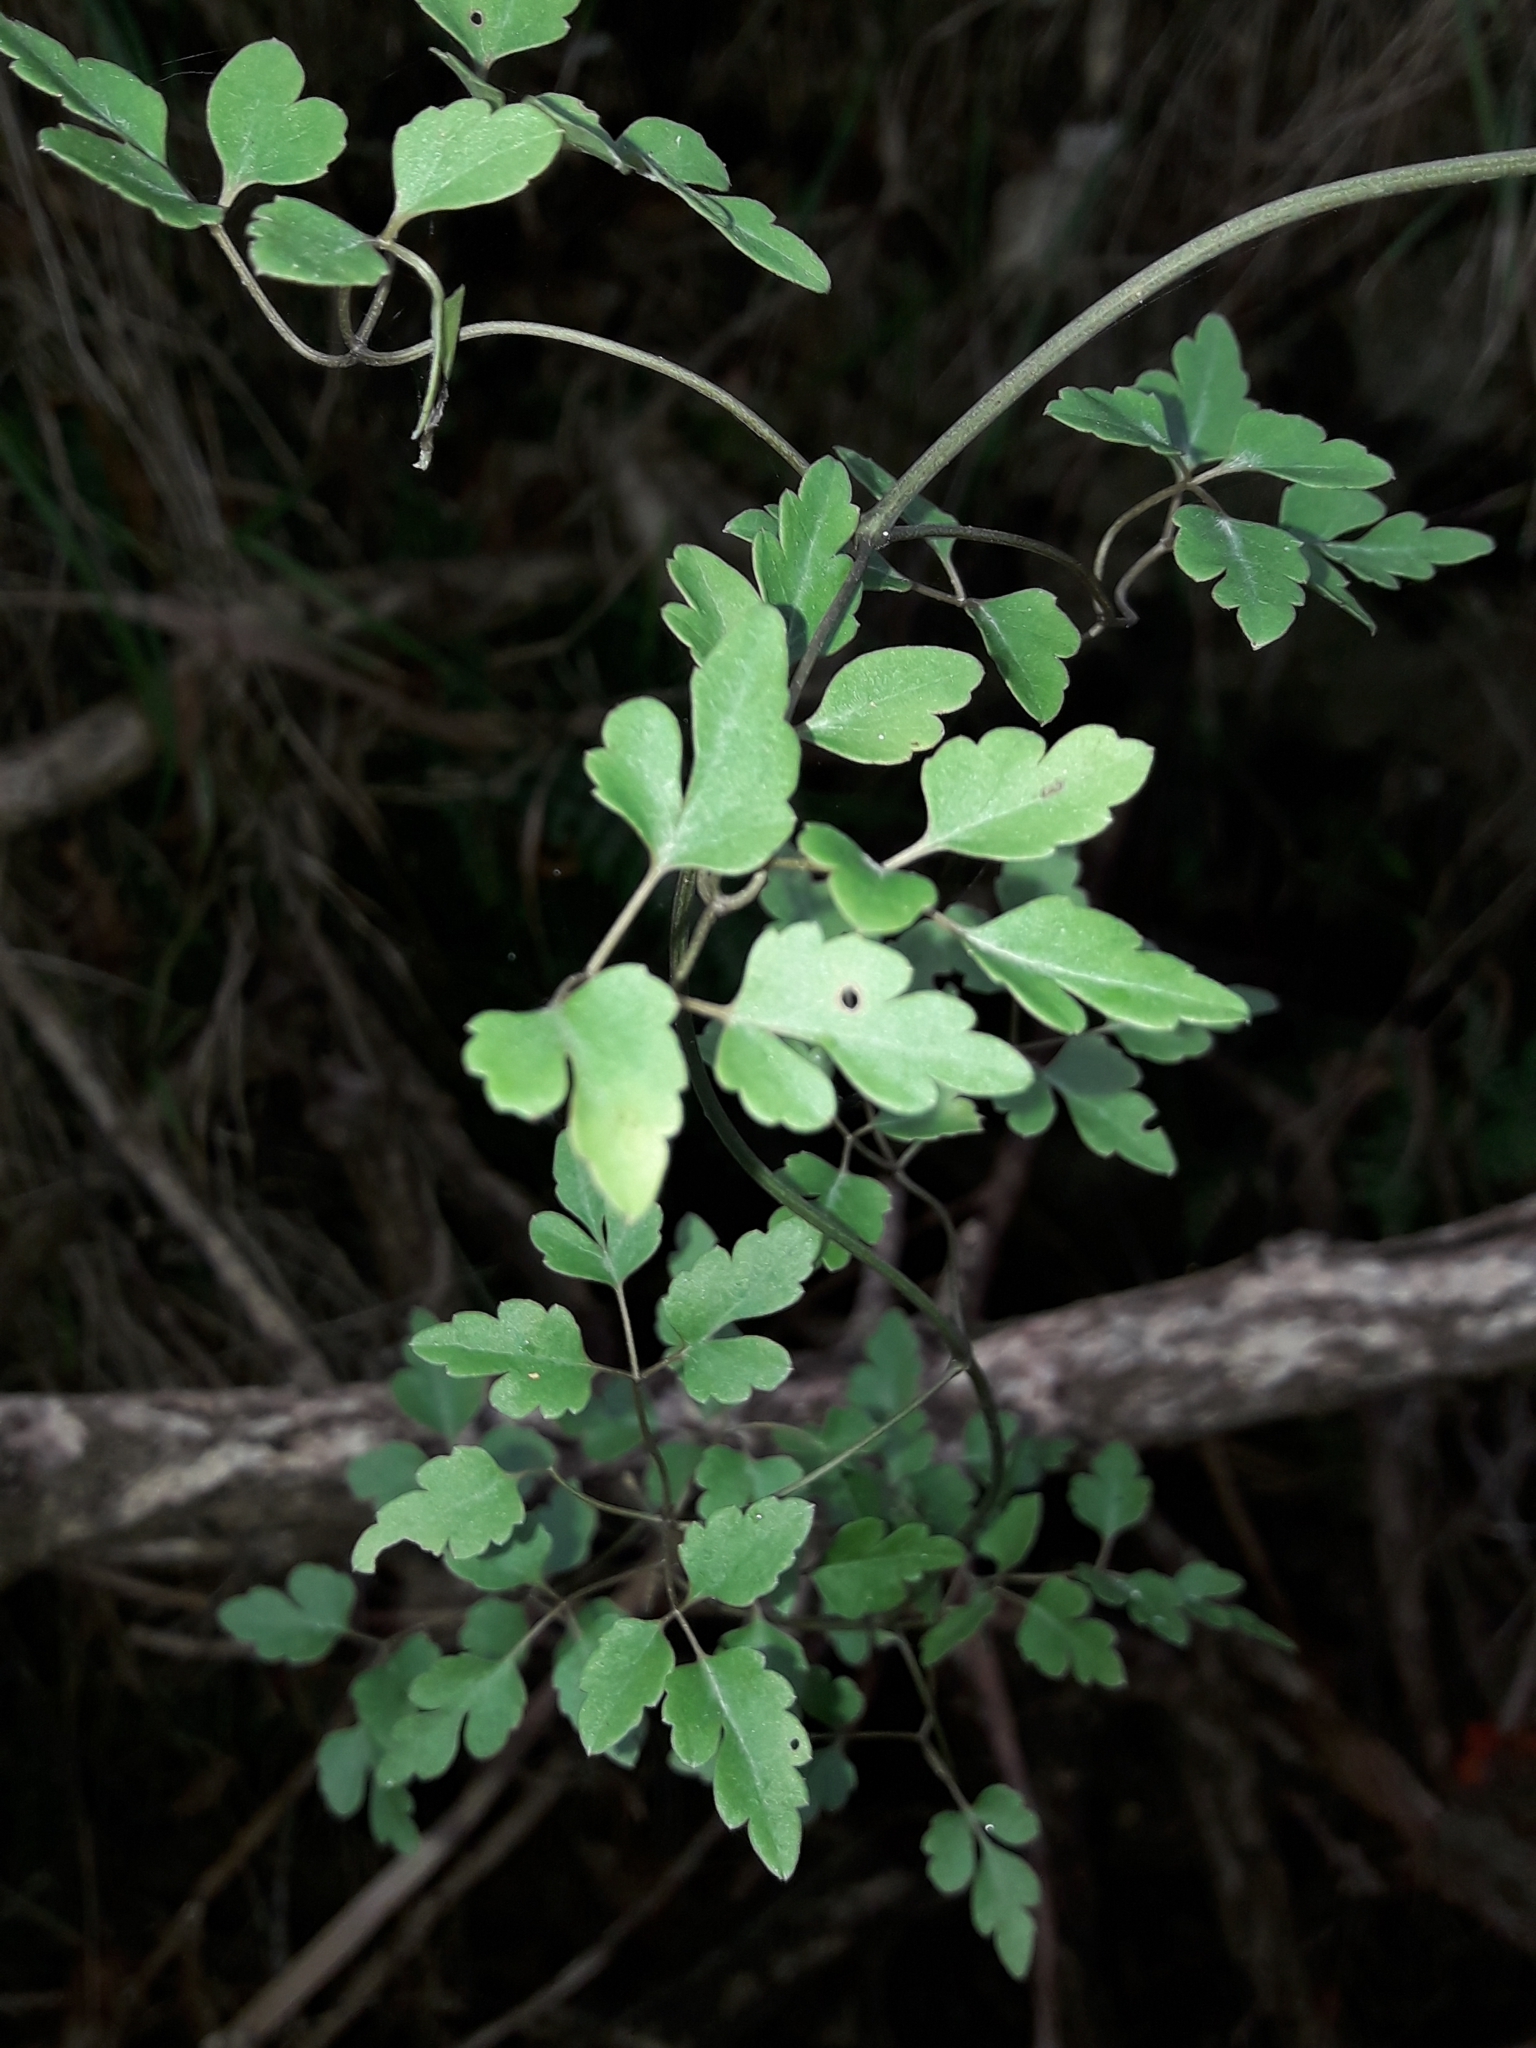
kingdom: Plantae
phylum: Tracheophyta
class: Magnoliopsida
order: Ranunculales
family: Ranunculaceae
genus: Clematis
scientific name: Clematis forsteri
